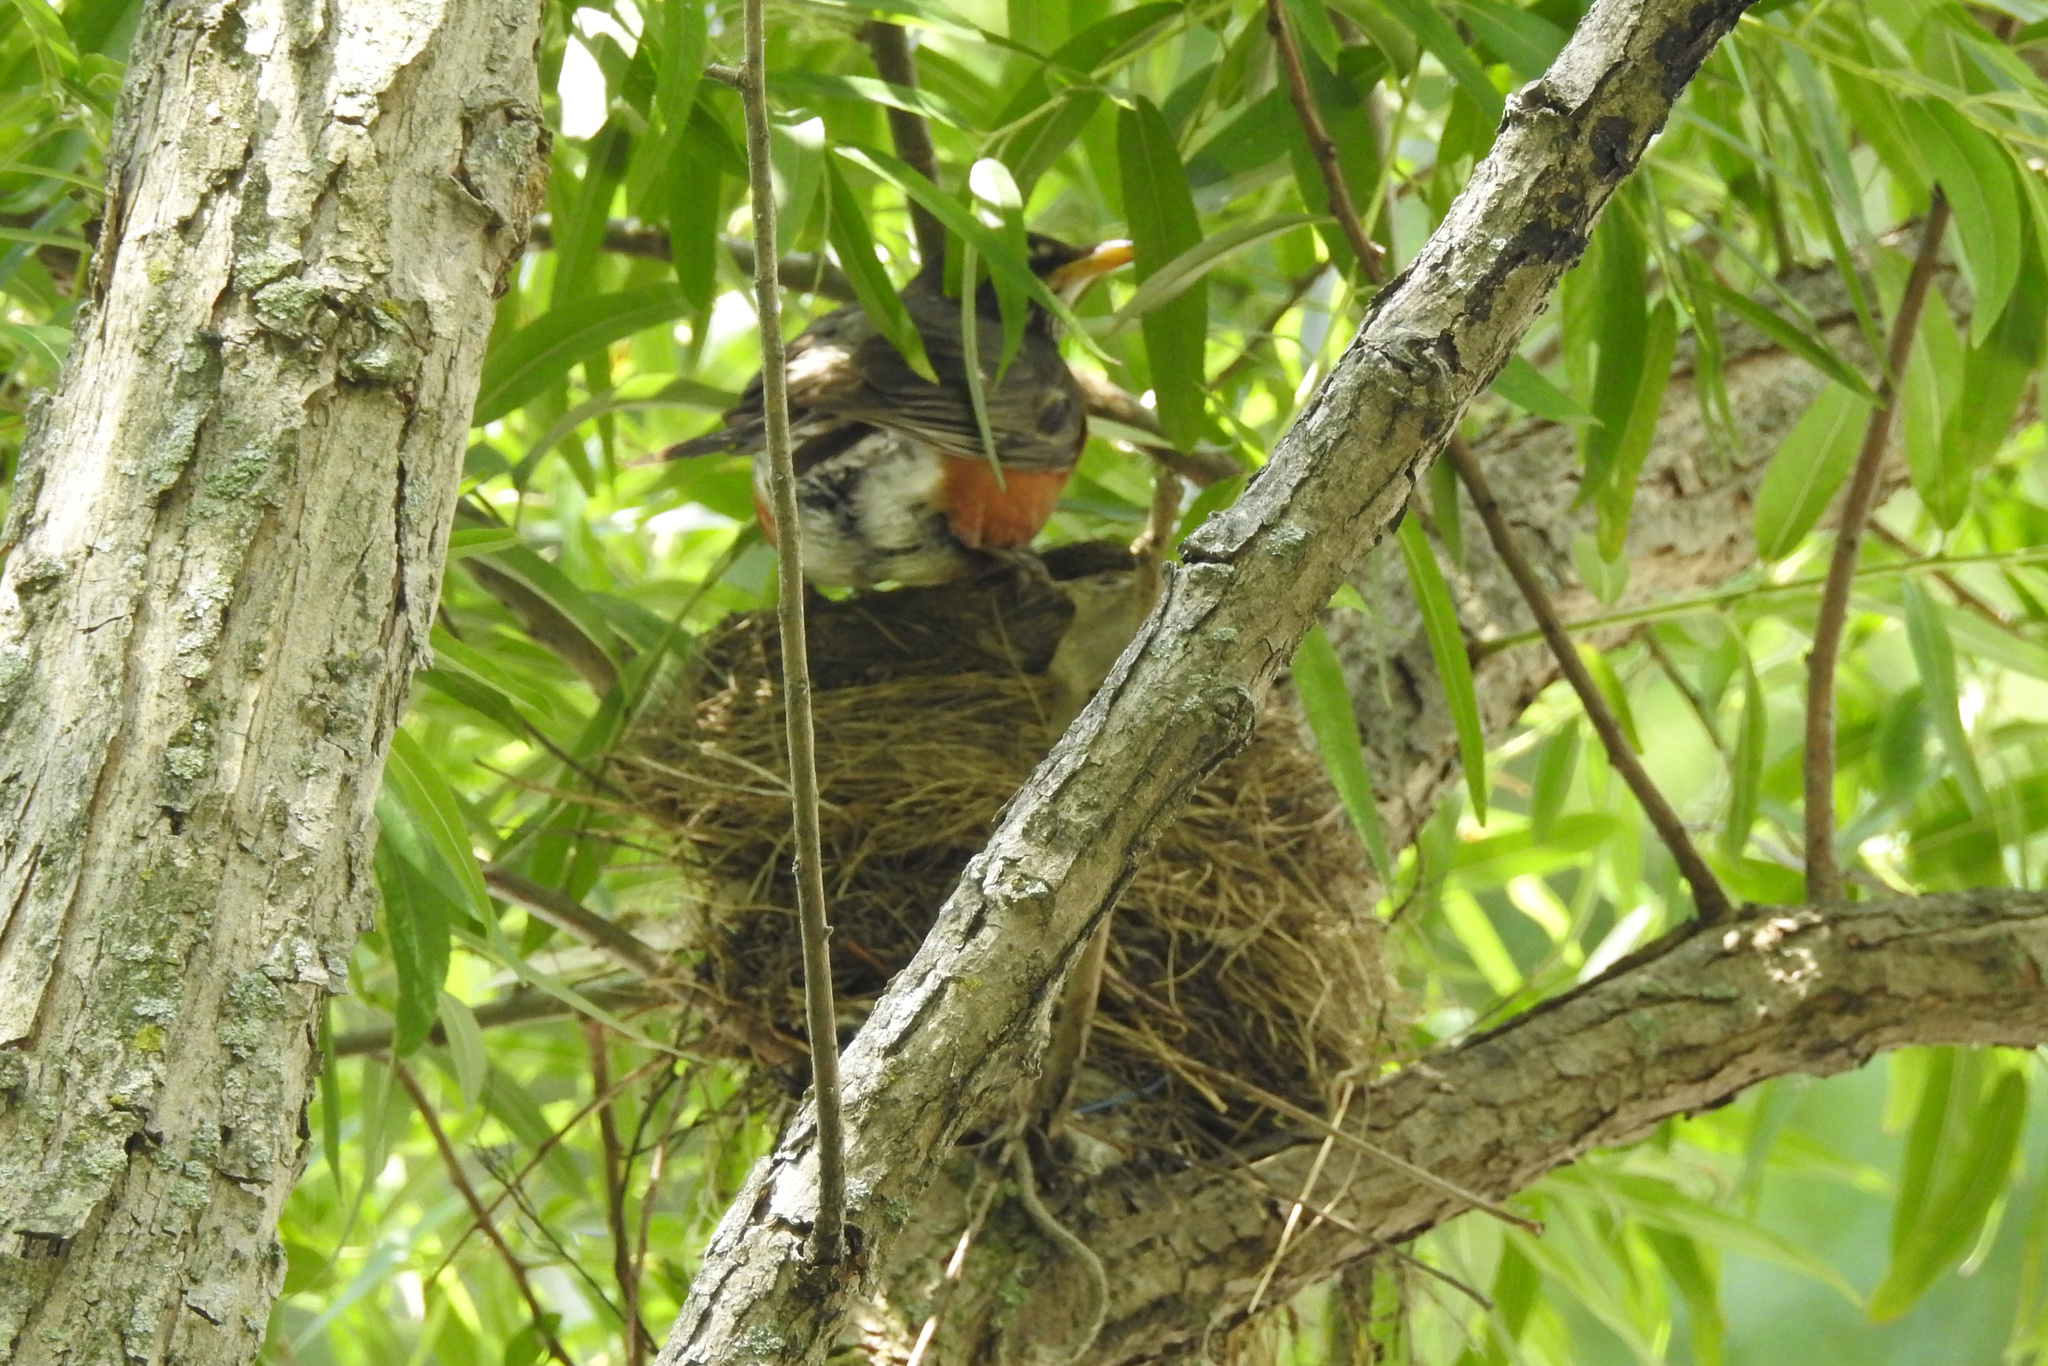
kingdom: Animalia
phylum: Chordata
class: Aves
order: Passeriformes
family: Turdidae
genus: Turdus
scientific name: Turdus migratorius
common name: American robin
